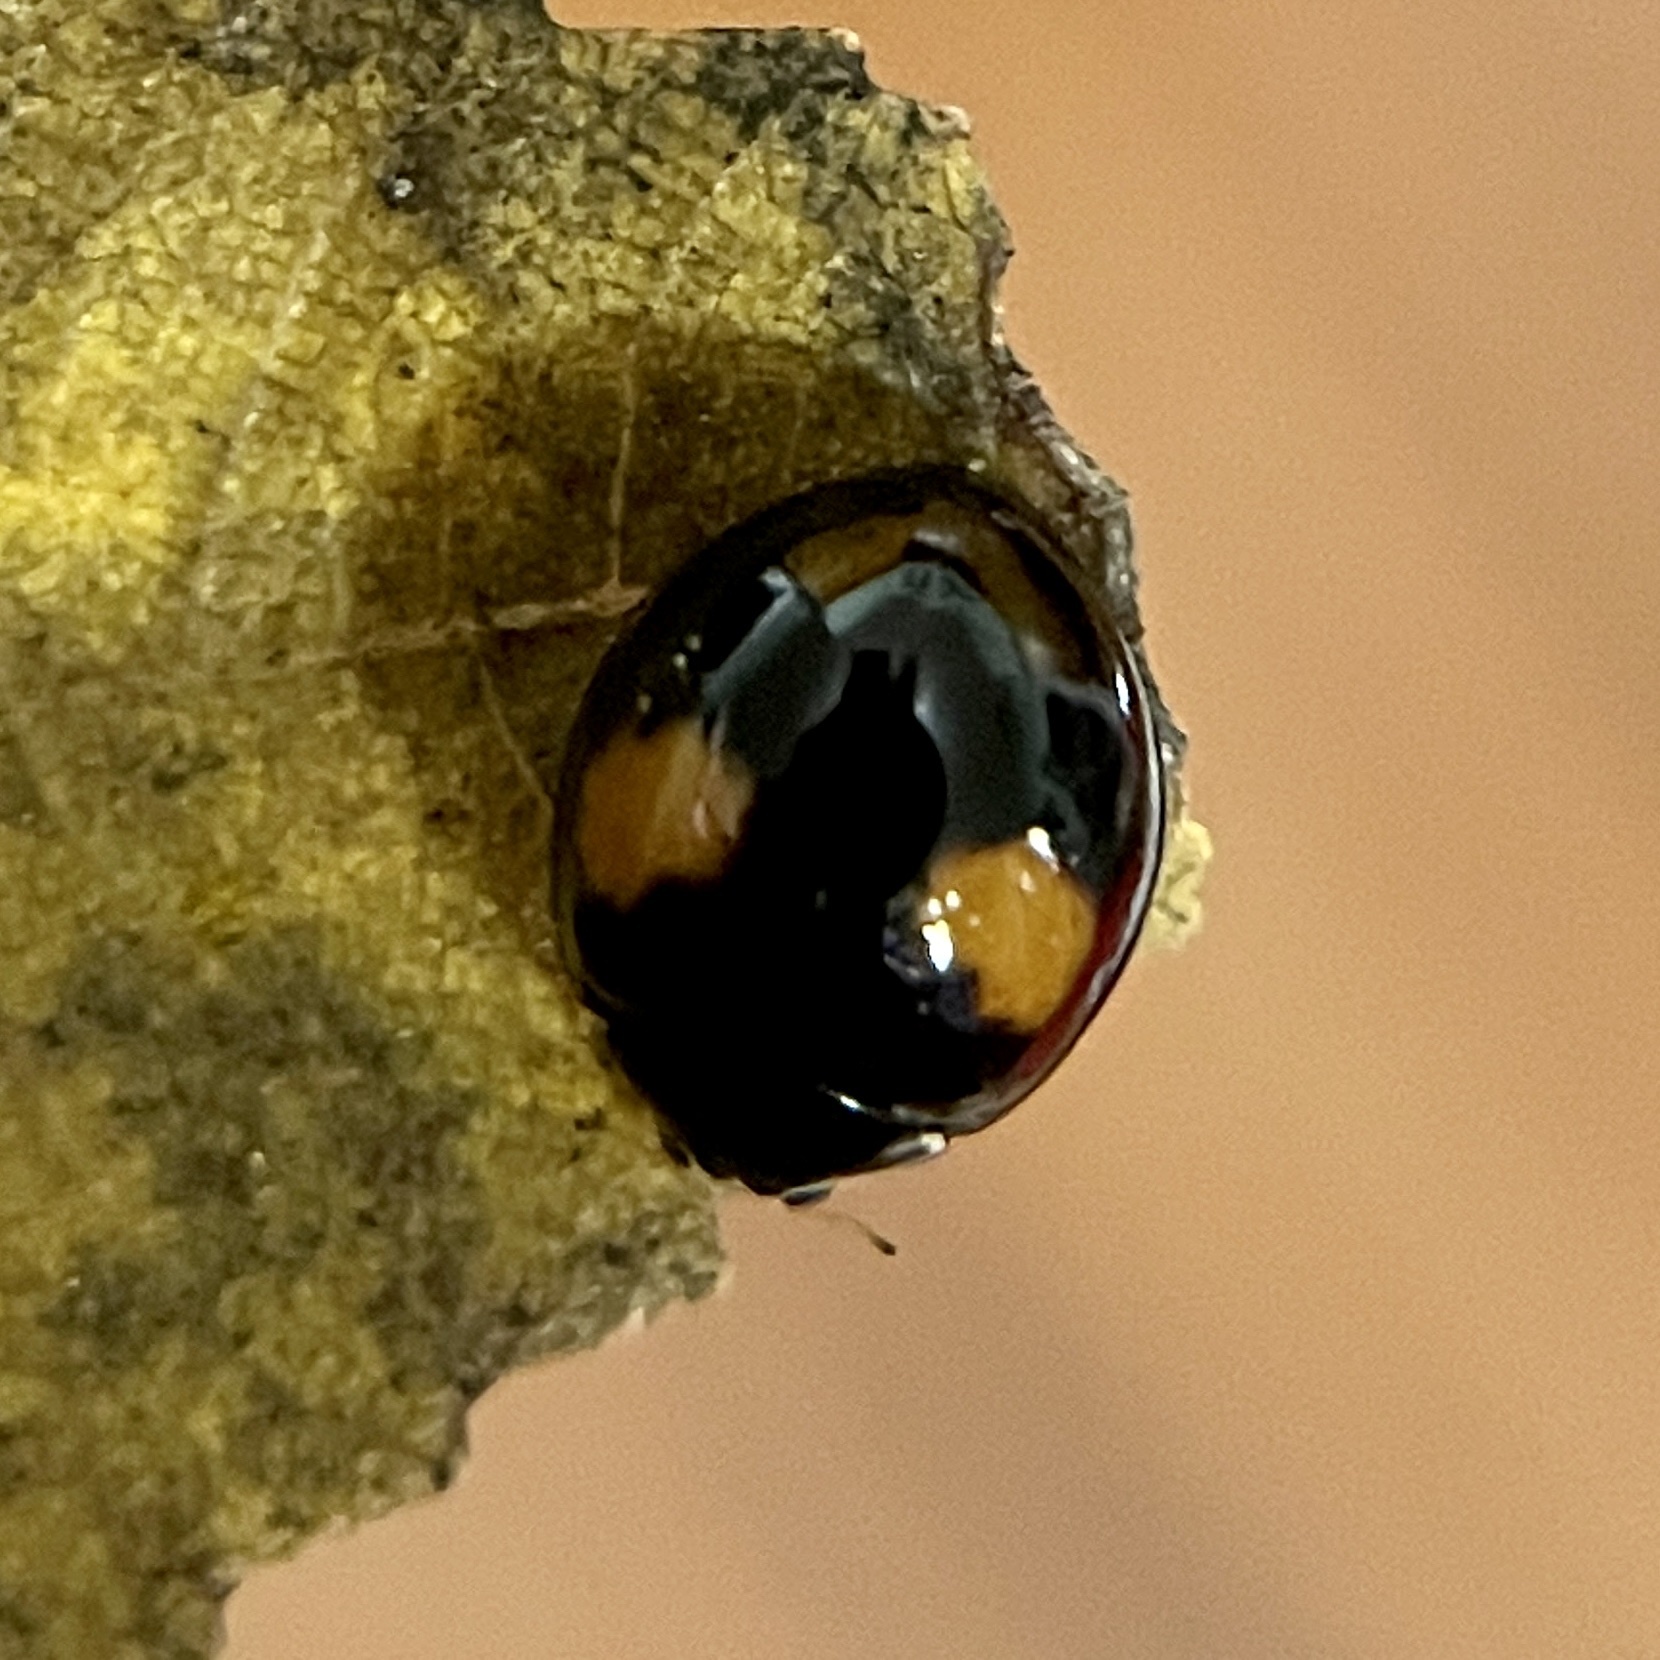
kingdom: Animalia
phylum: Arthropoda
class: Insecta
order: Coleoptera
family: Coccinellidae
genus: Olla
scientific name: Olla v-nigrum
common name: Ashy gray lady beetle
